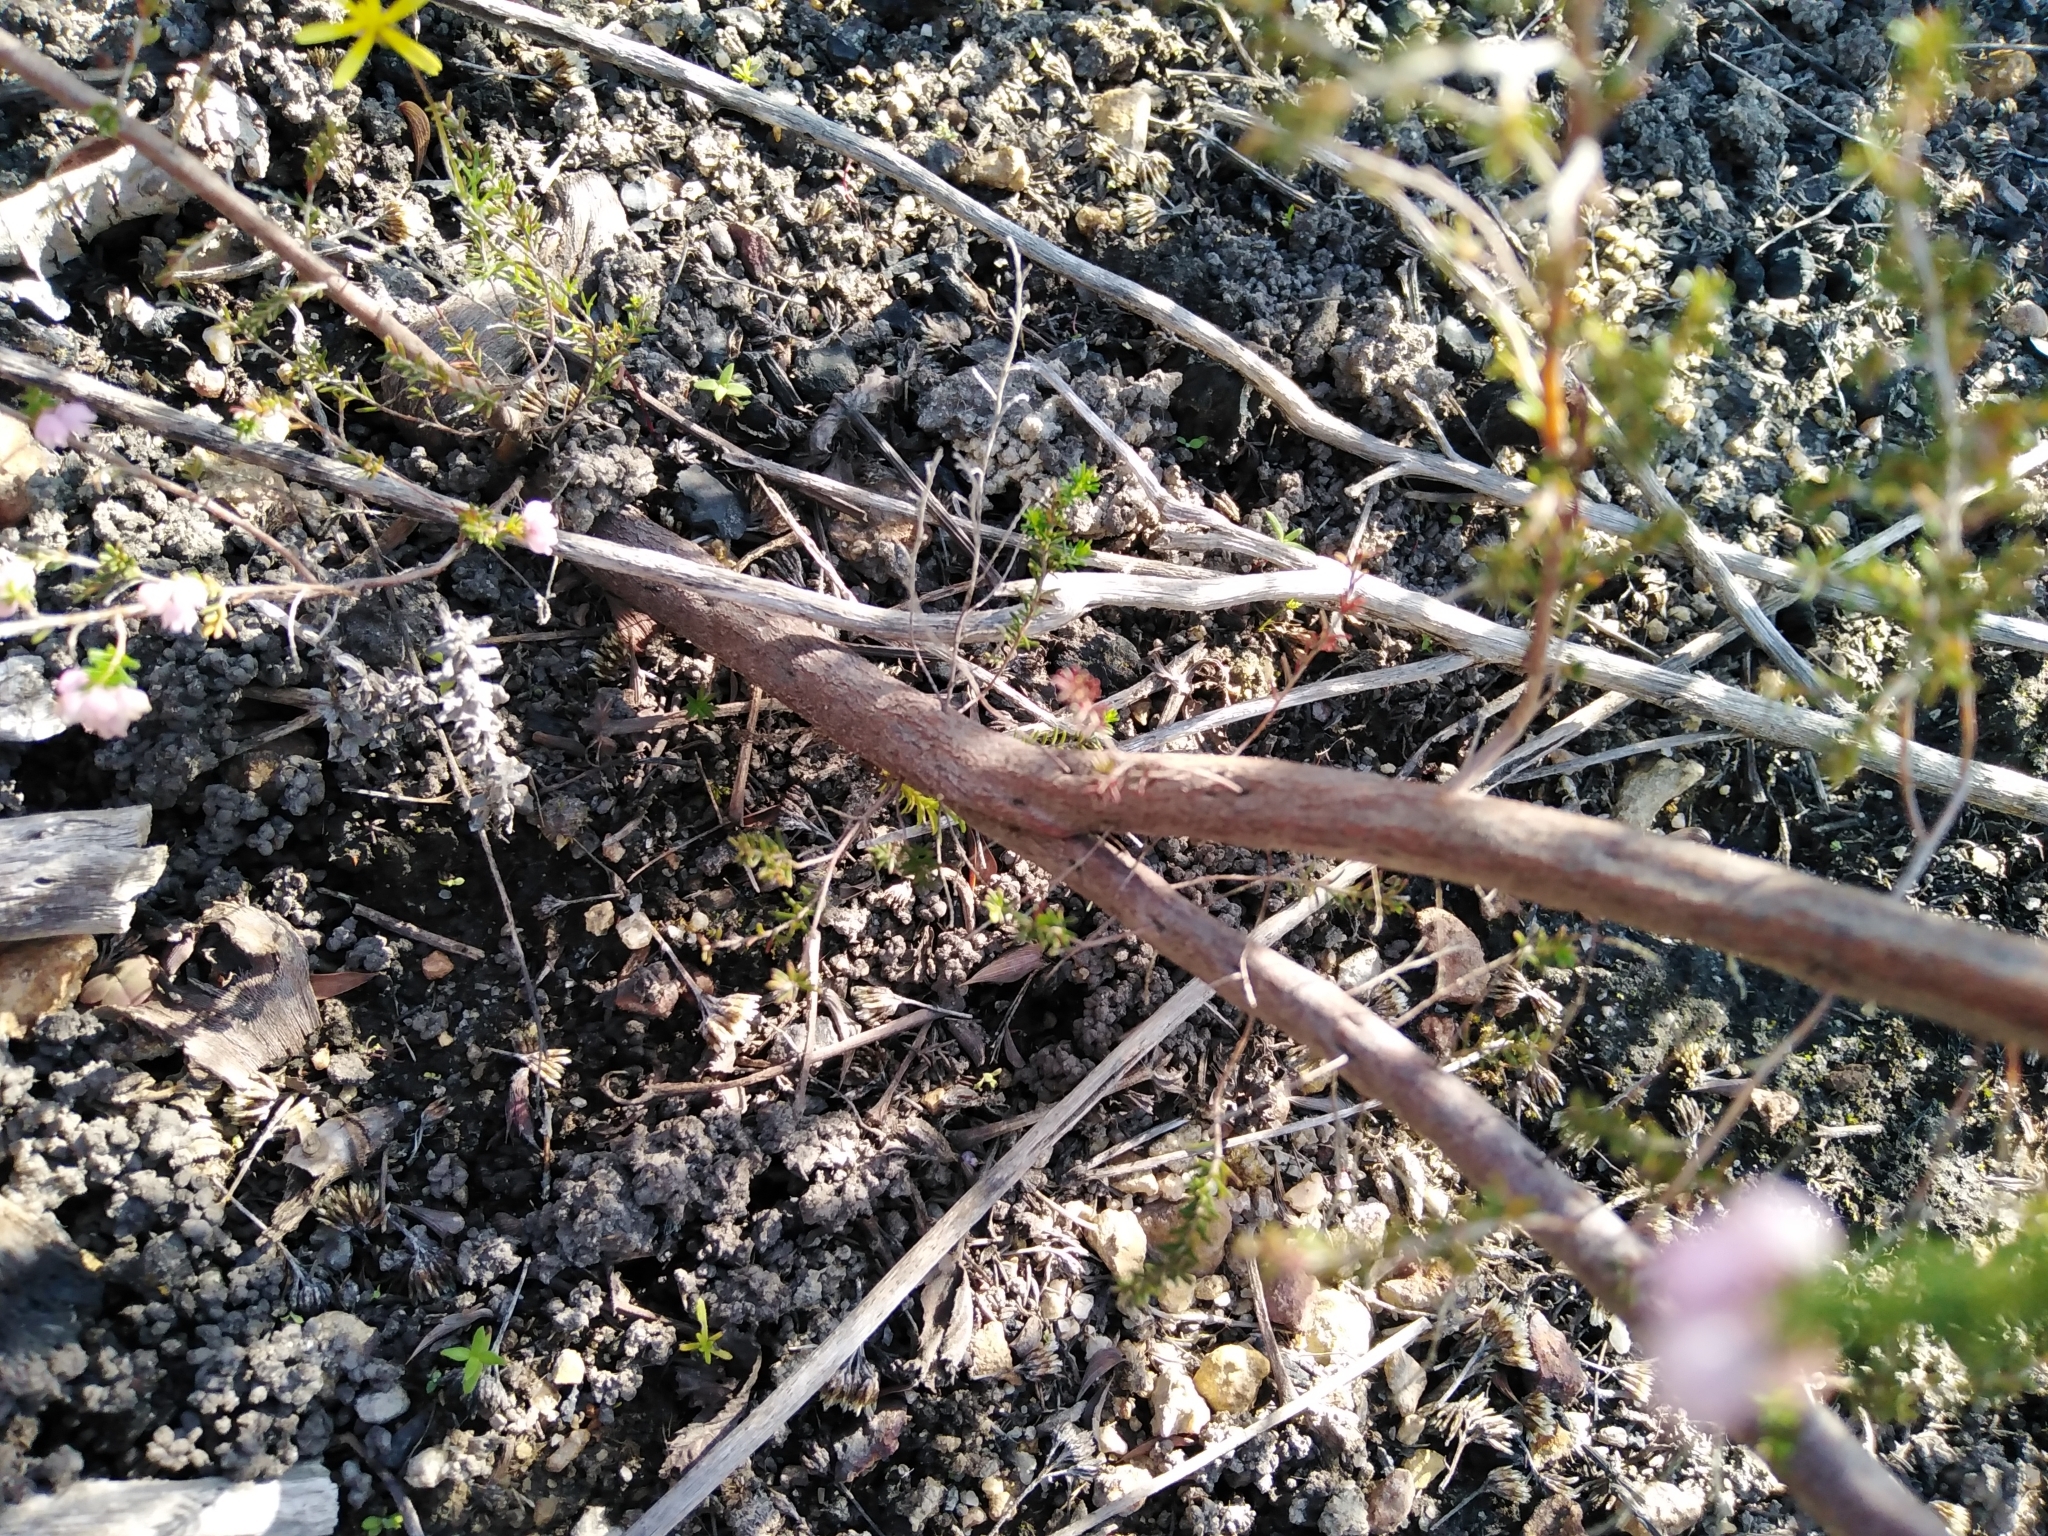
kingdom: Plantae
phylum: Tracheophyta
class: Magnoliopsida
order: Ericales
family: Ericaceae
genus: Erica
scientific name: Erica mauritanica
